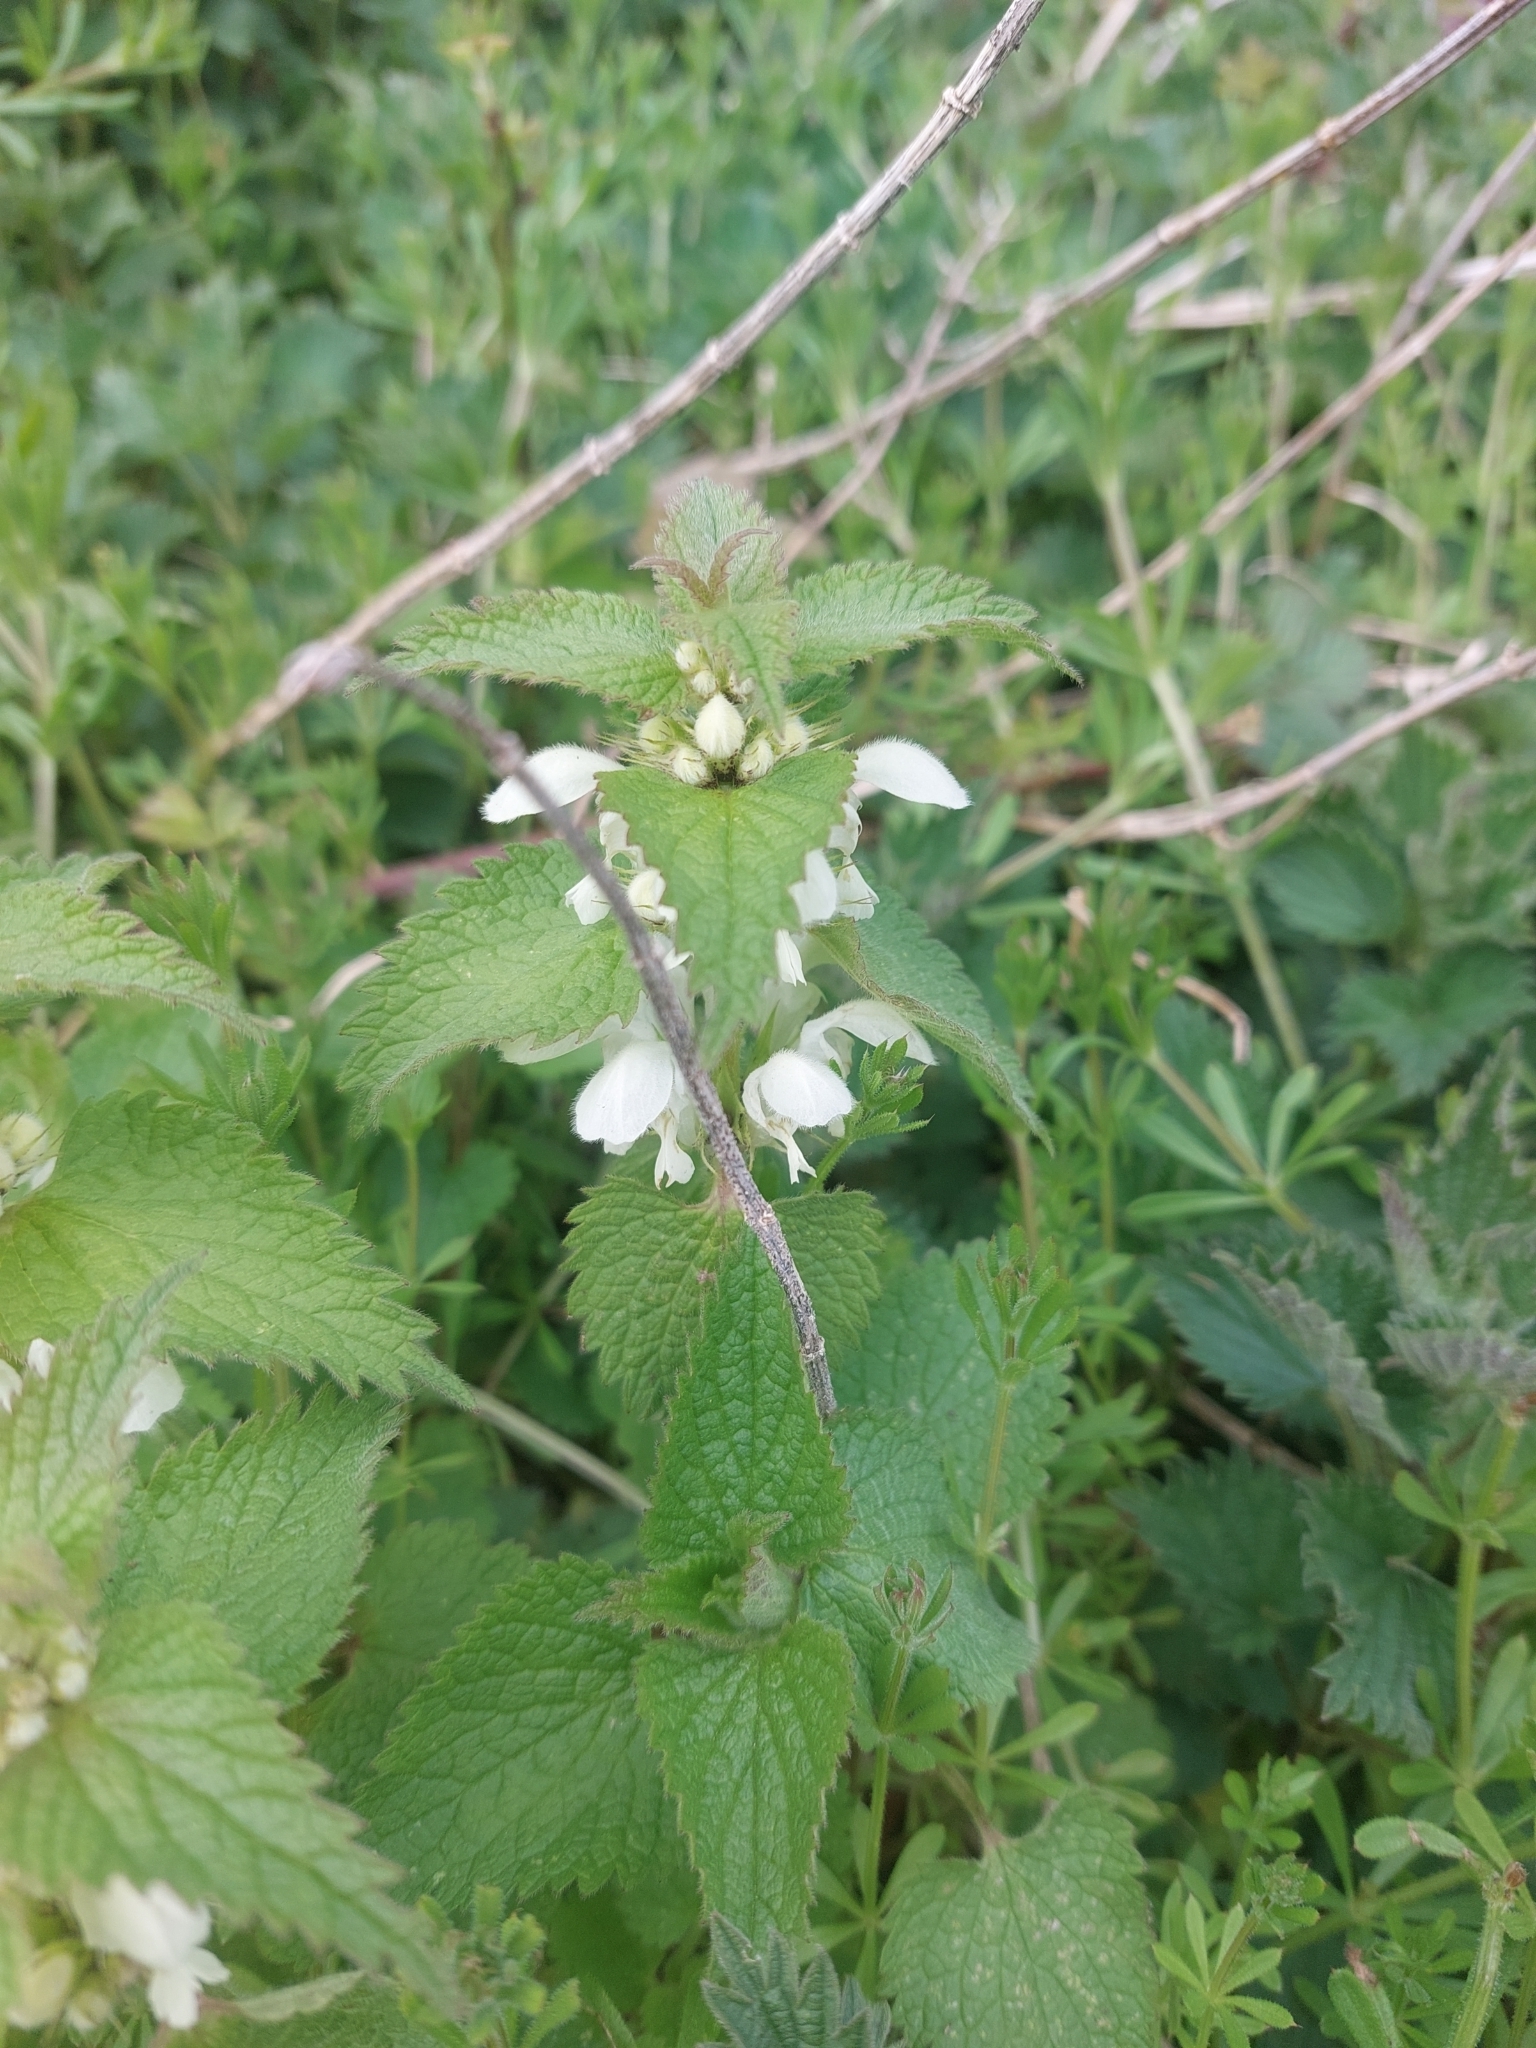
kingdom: Plantae
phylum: Tracheophyta
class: Magnoliopsida
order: Lamiales
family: Lamiaceae
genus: Lamium
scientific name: Lamium album
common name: White dead-nettle
